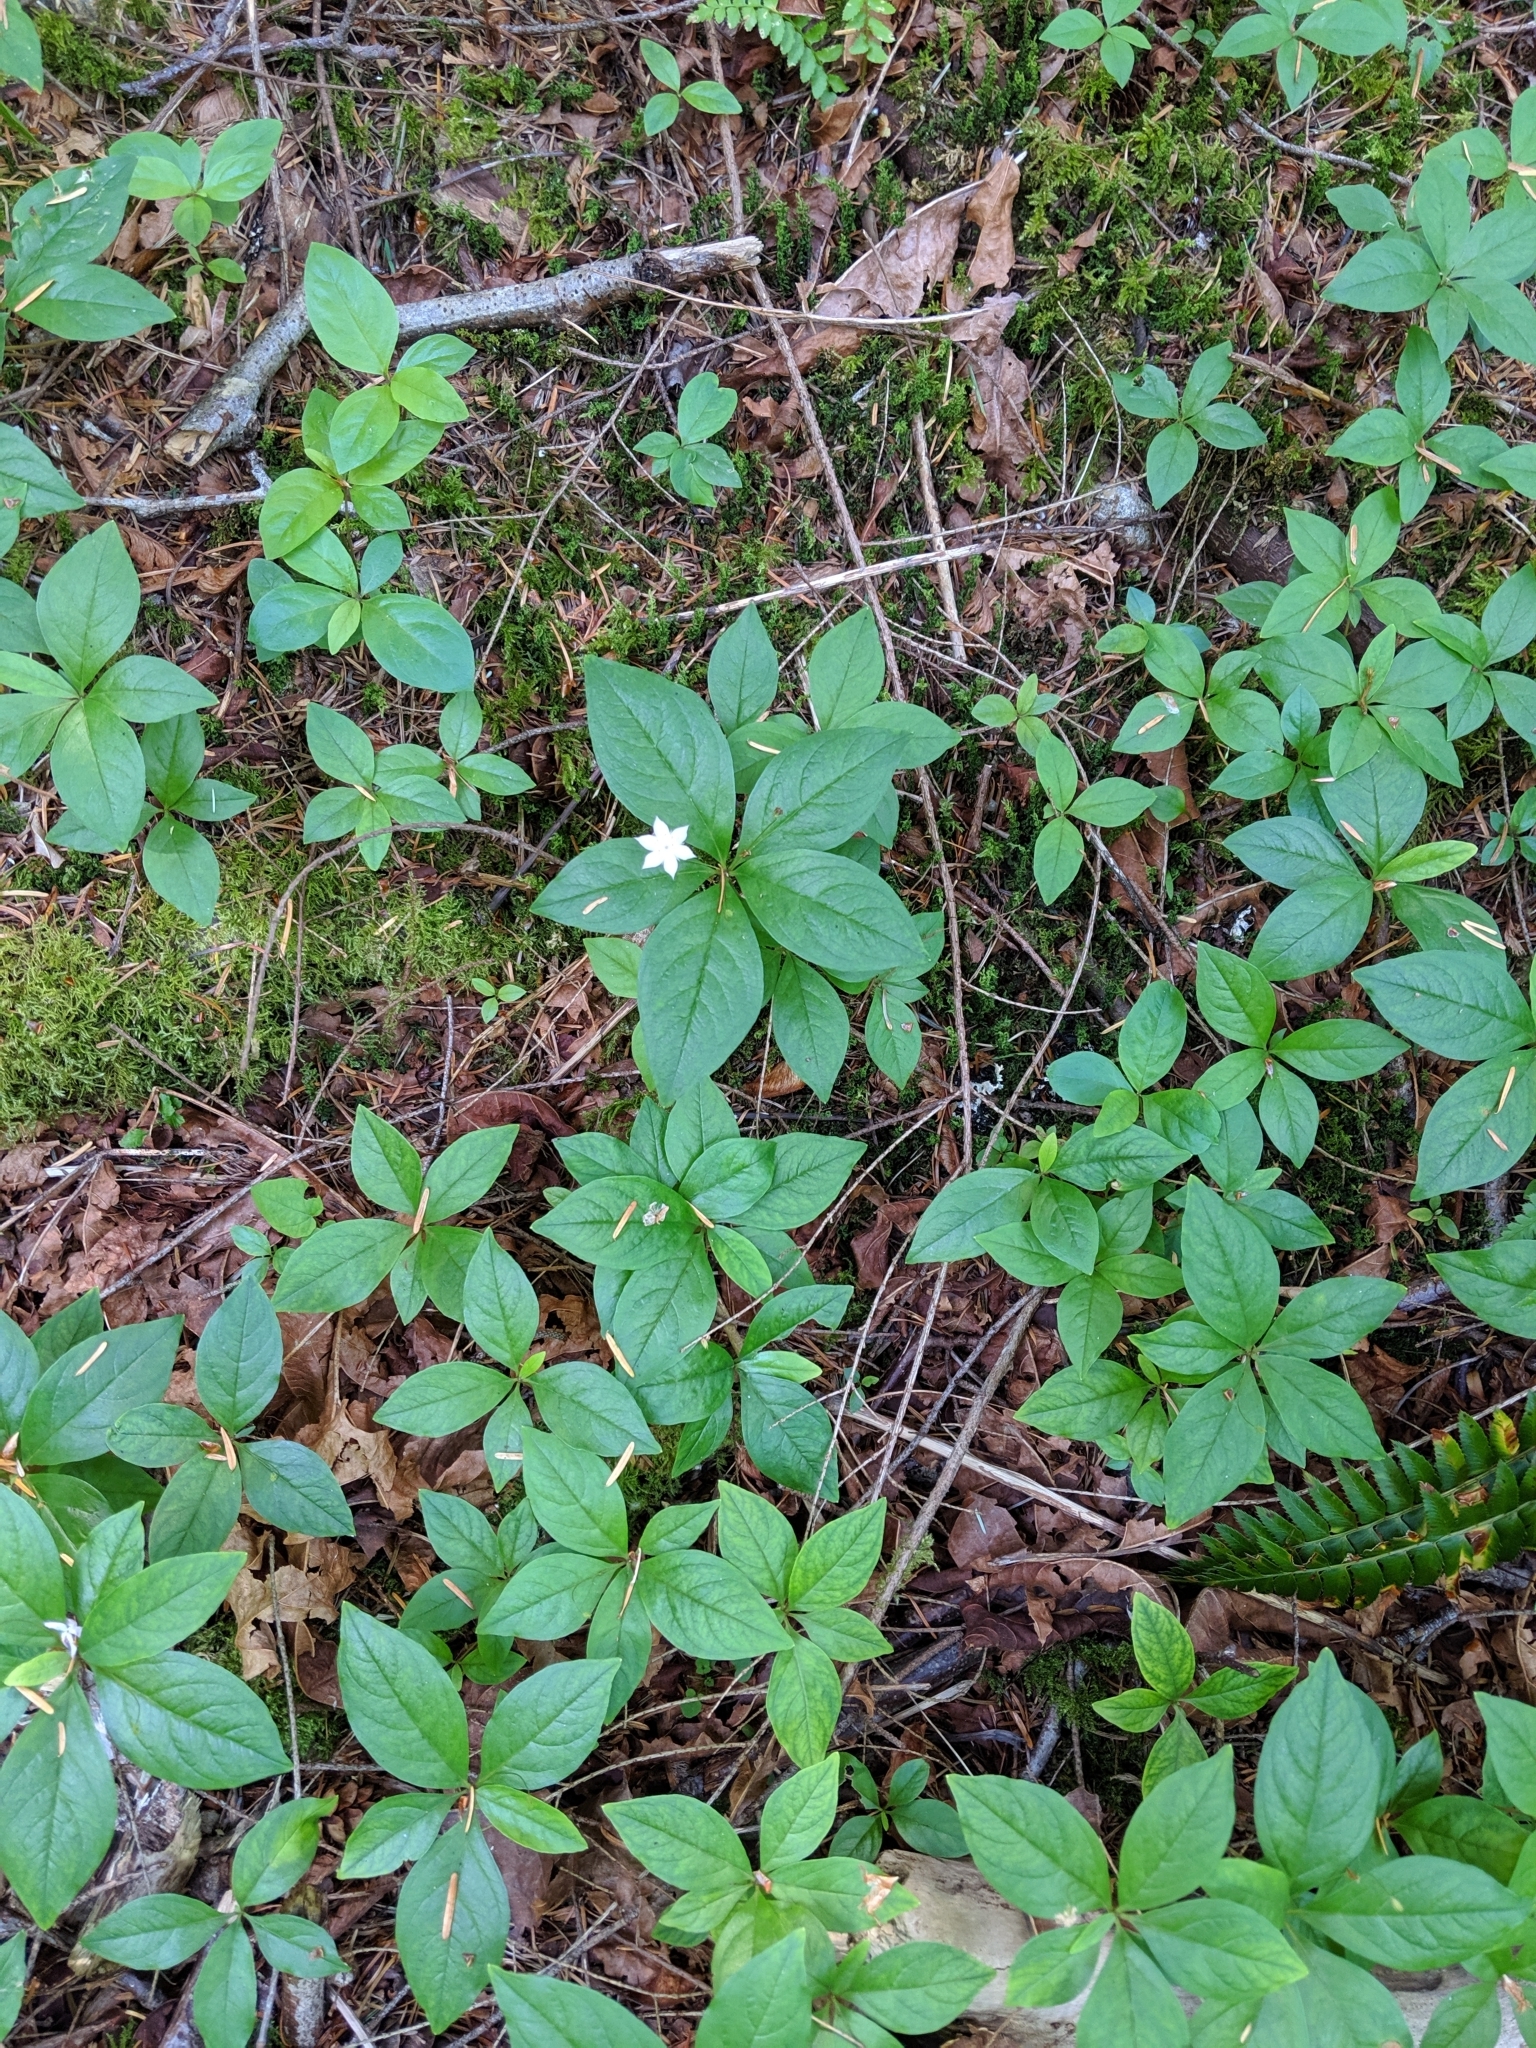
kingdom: Plantae
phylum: Tracheophyta
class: Magnoliopsida
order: Ericales
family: Primulaceae
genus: Lysimachia
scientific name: Lysimachia latifolia
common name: Pacific starflower
